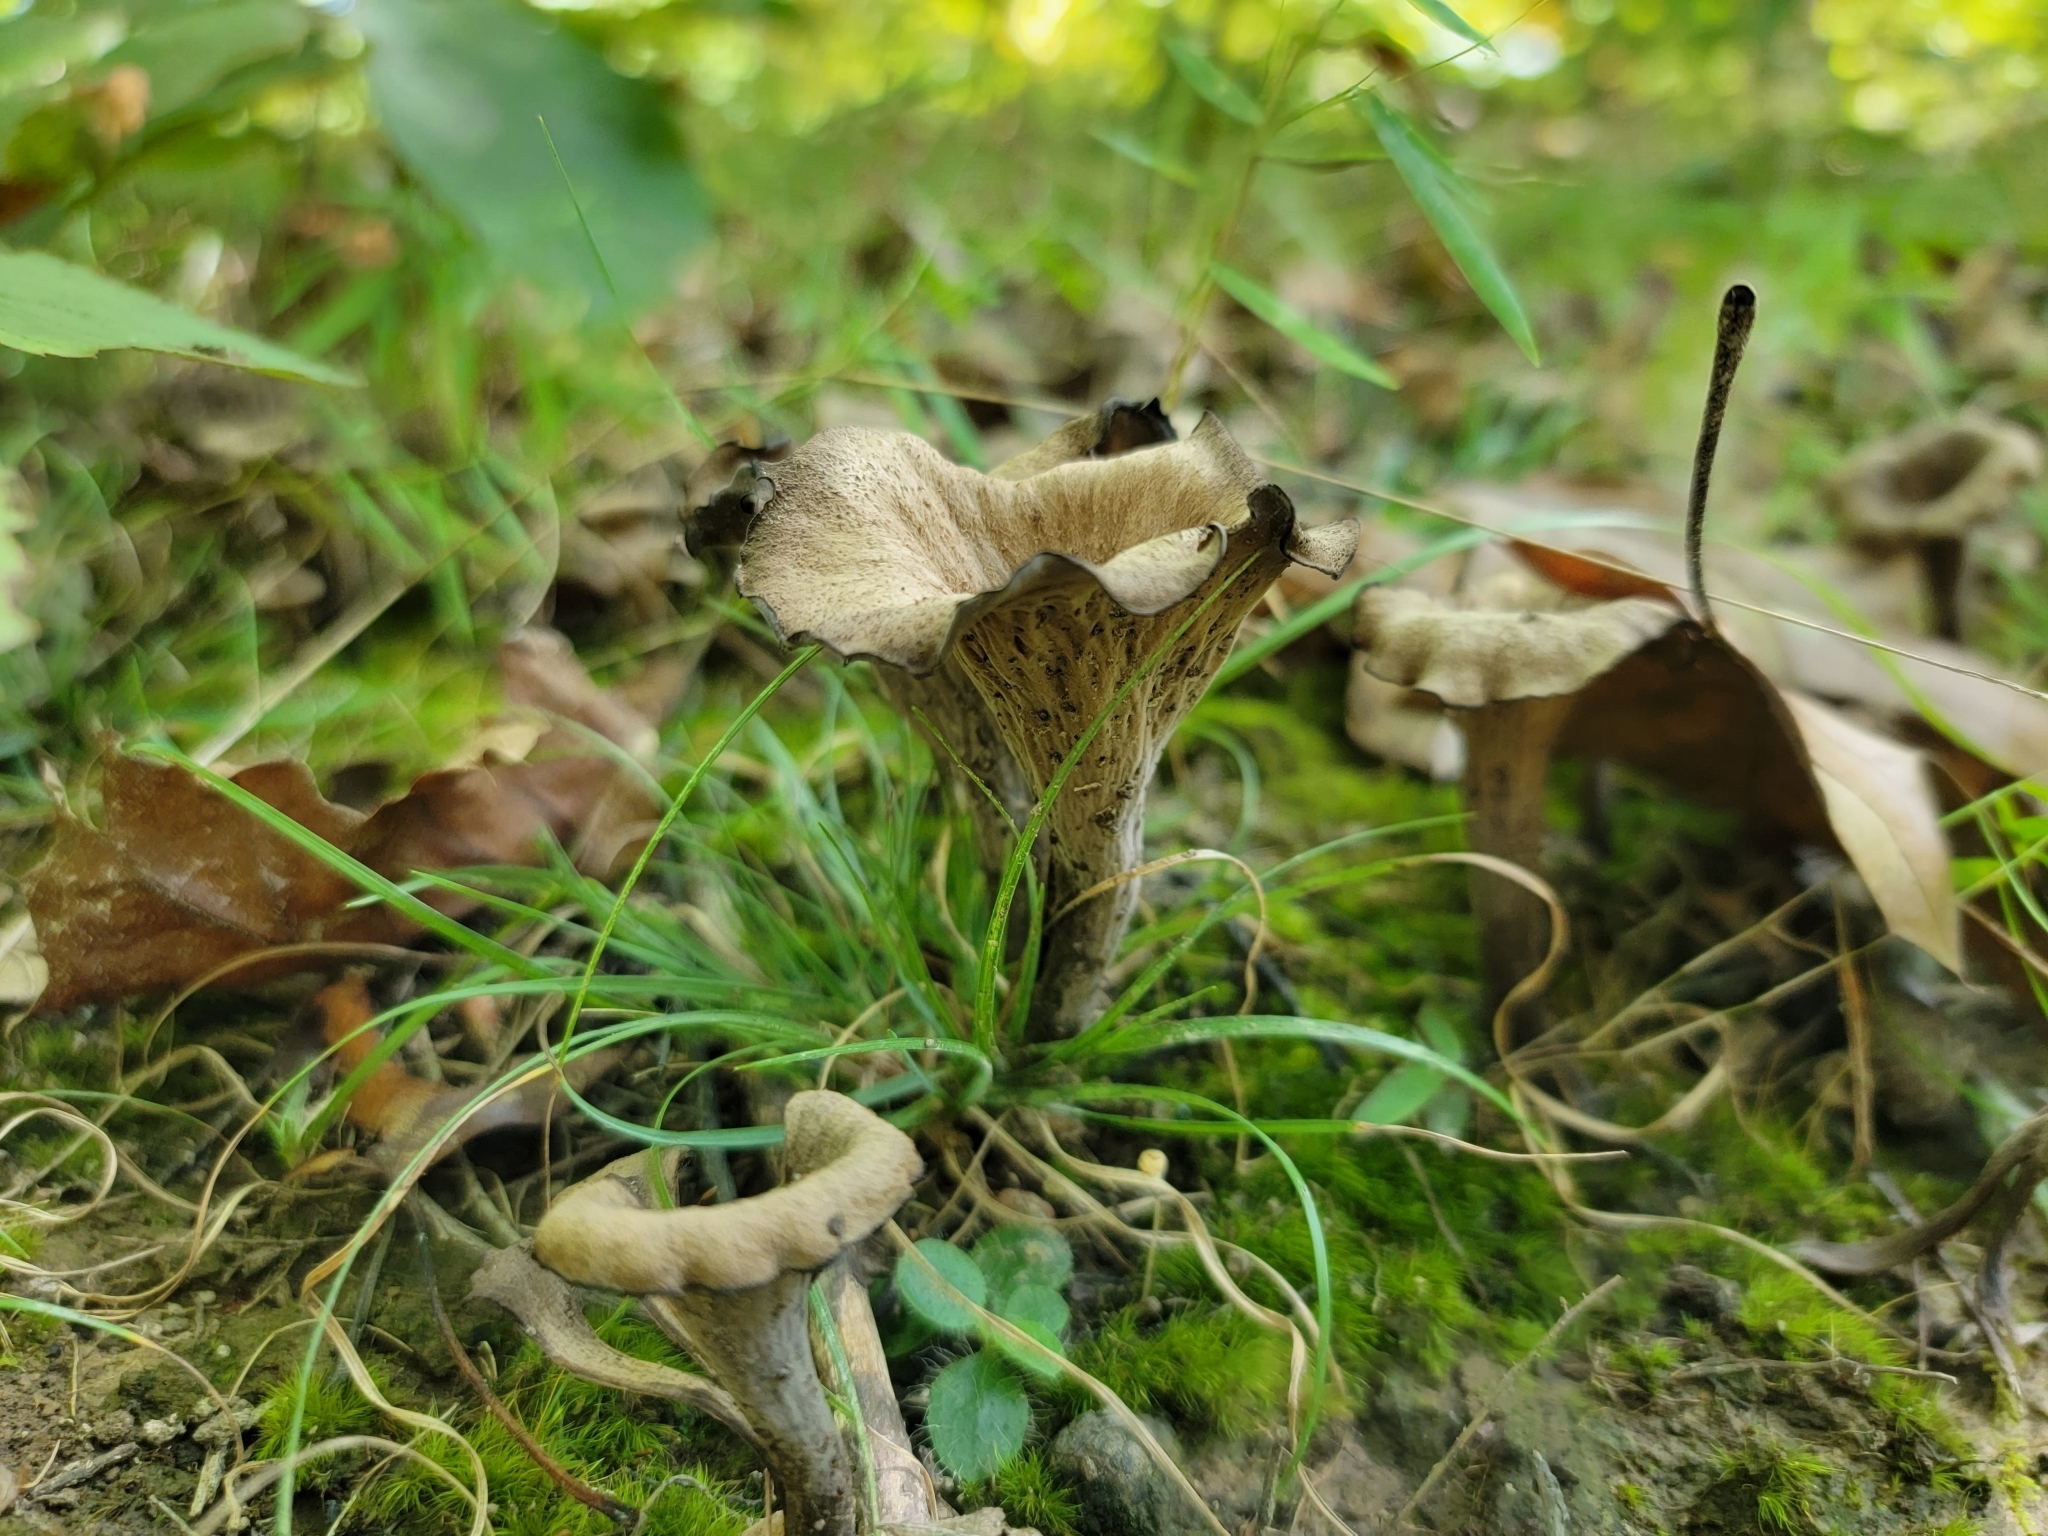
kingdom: Fungi
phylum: Basidiomycota
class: Agaricomycetes
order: Cantharellales
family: Hydnaceae
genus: Craterellus
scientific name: Craterellus cornucopioides
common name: Horn of plenty
